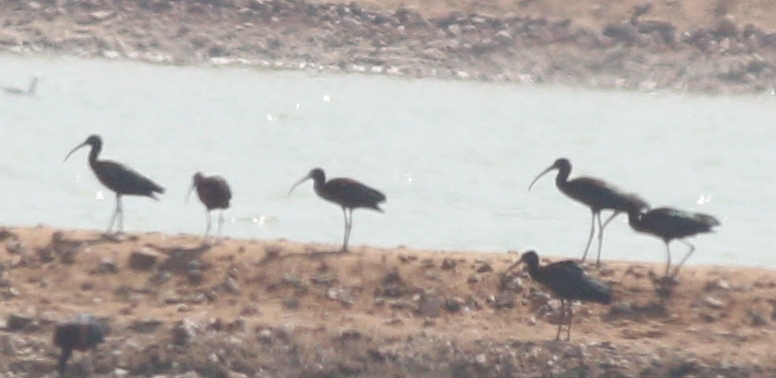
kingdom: Animalia
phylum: Chordata
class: Aves
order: Pelecaniformes
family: Threskiornithidae
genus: Plegadis
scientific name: Plegadis falcinellus
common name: Glossy ibis
